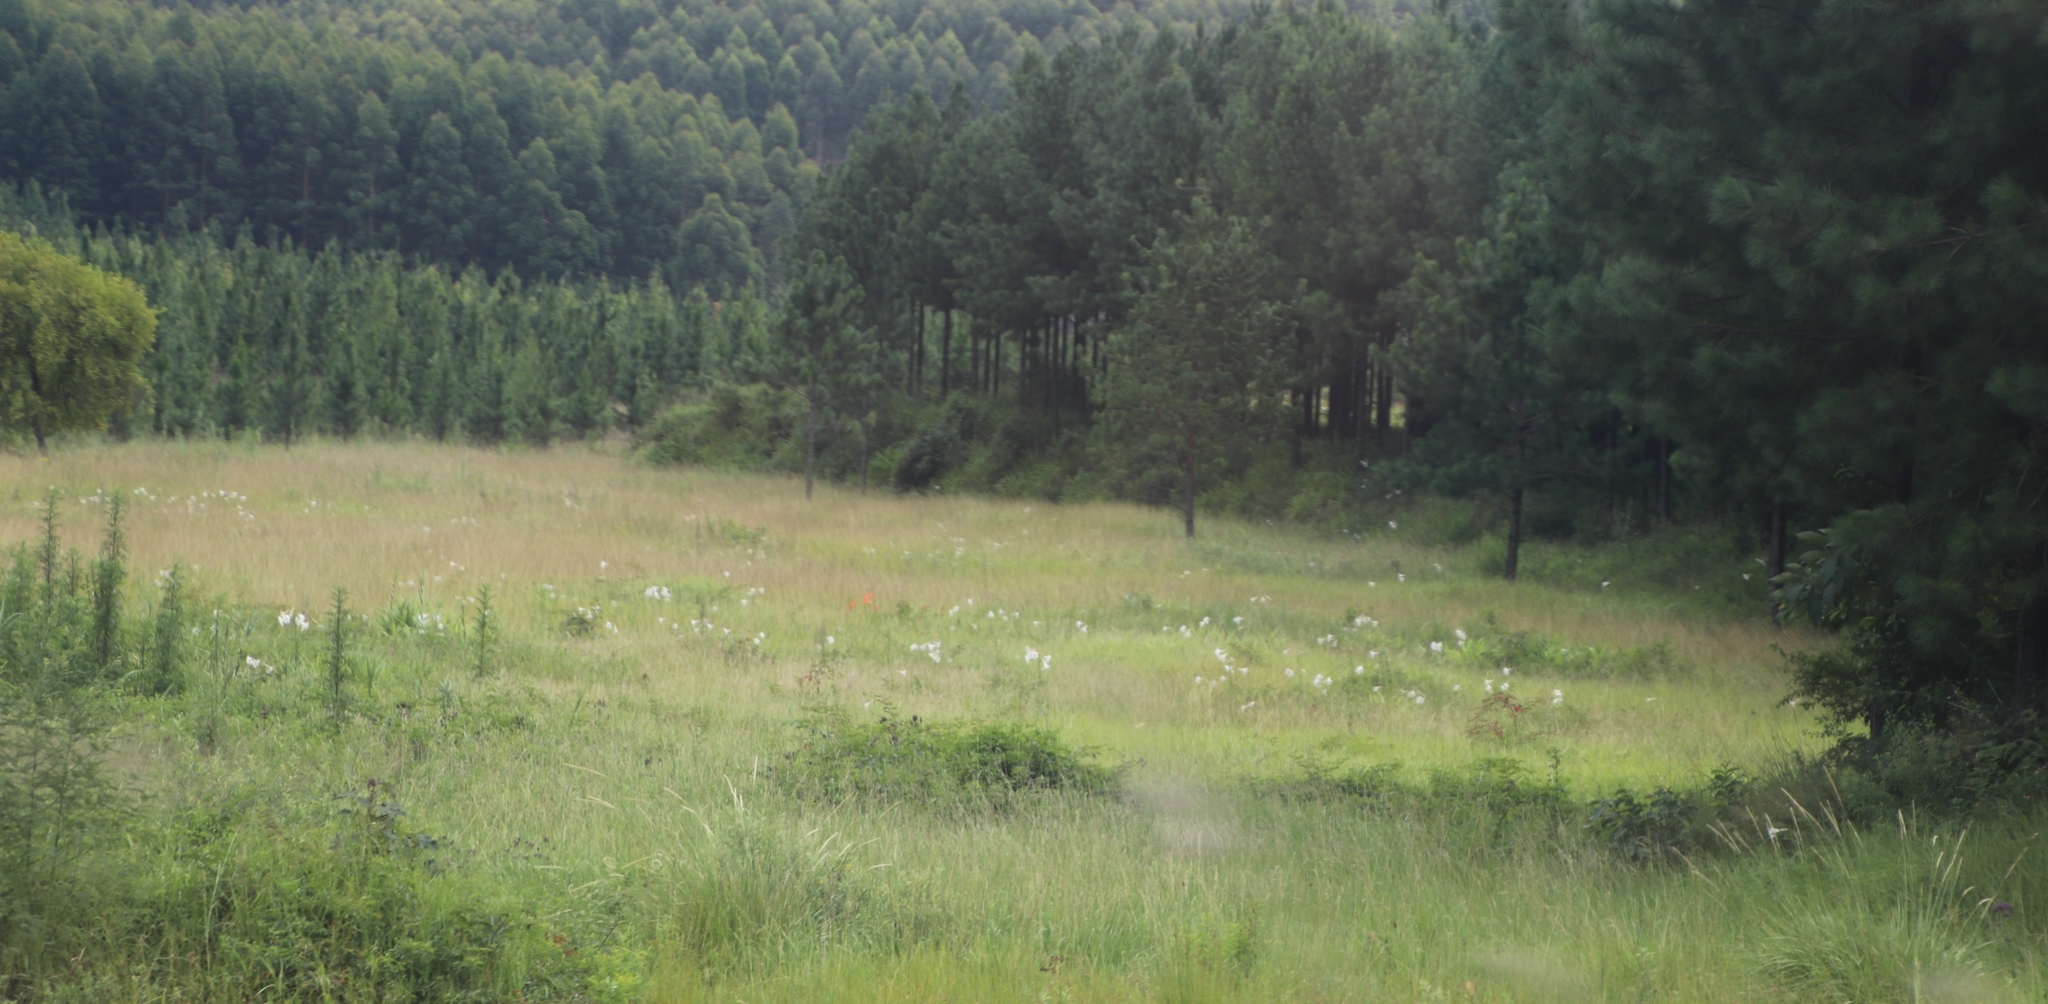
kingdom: Plantae
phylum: Tracheophyta
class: Liliopsida
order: Liliales
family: Liliaceae
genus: Lilium
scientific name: Lilium formosanum
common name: Formosa lily
